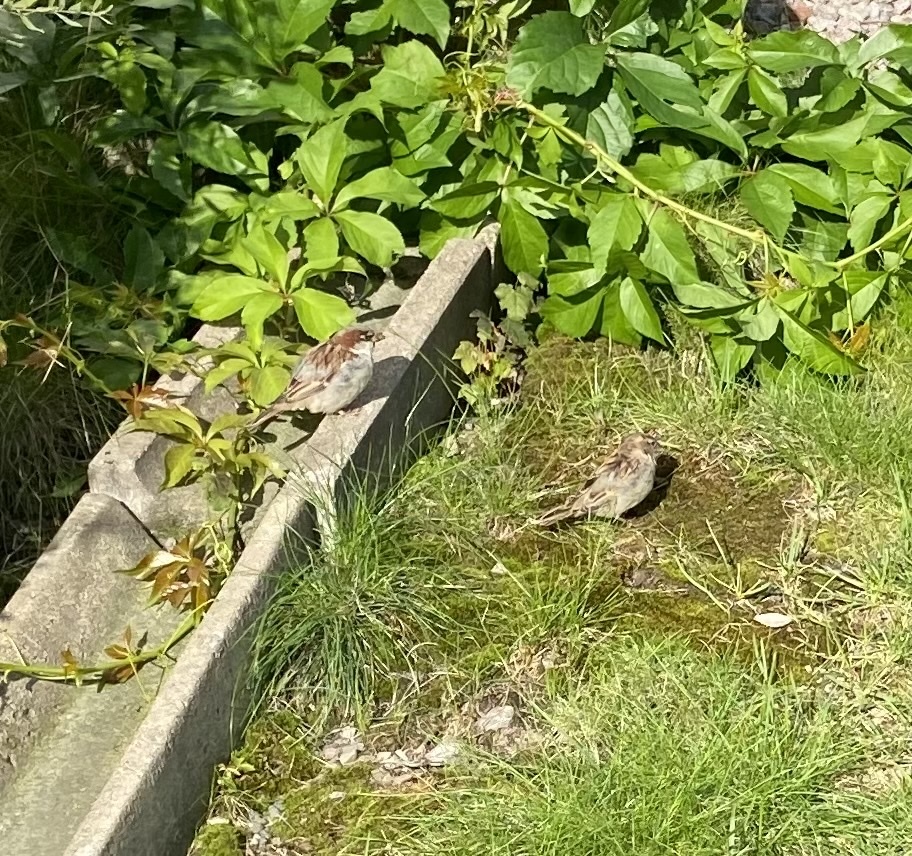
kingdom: Animalia
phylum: Chordata
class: Aves
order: Passeriformes
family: Passeridae
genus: Passer
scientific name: Passer domesticus
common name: House sparrow
